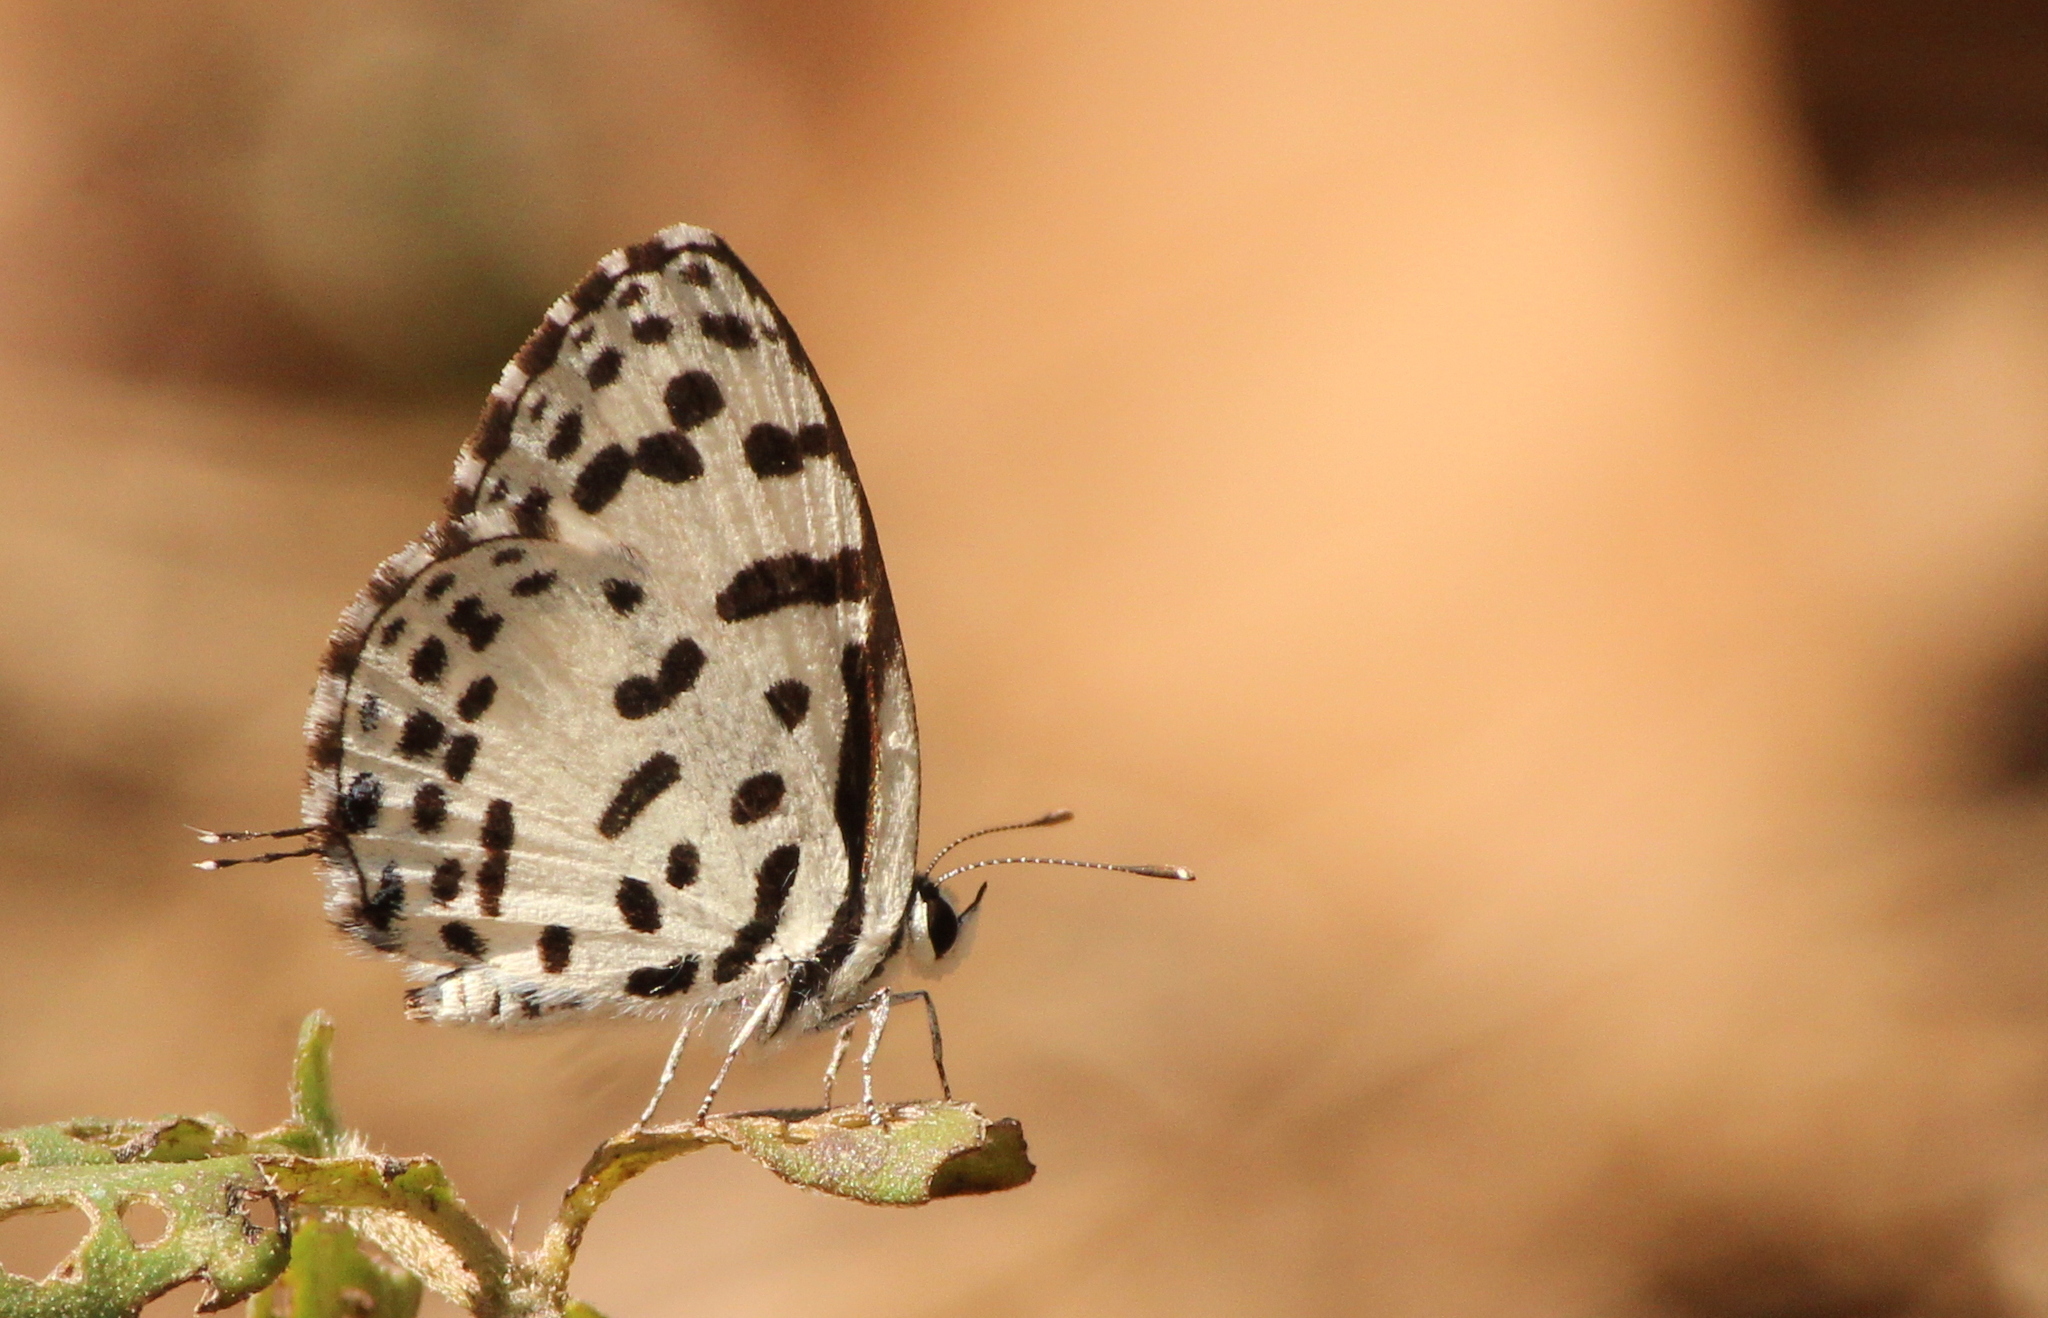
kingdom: Animalia
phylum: Arthropoda
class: Insecta
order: Lepidoptera
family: Lycaenidae
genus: Castalius
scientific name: Castalius rosimon
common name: Common pierrot
